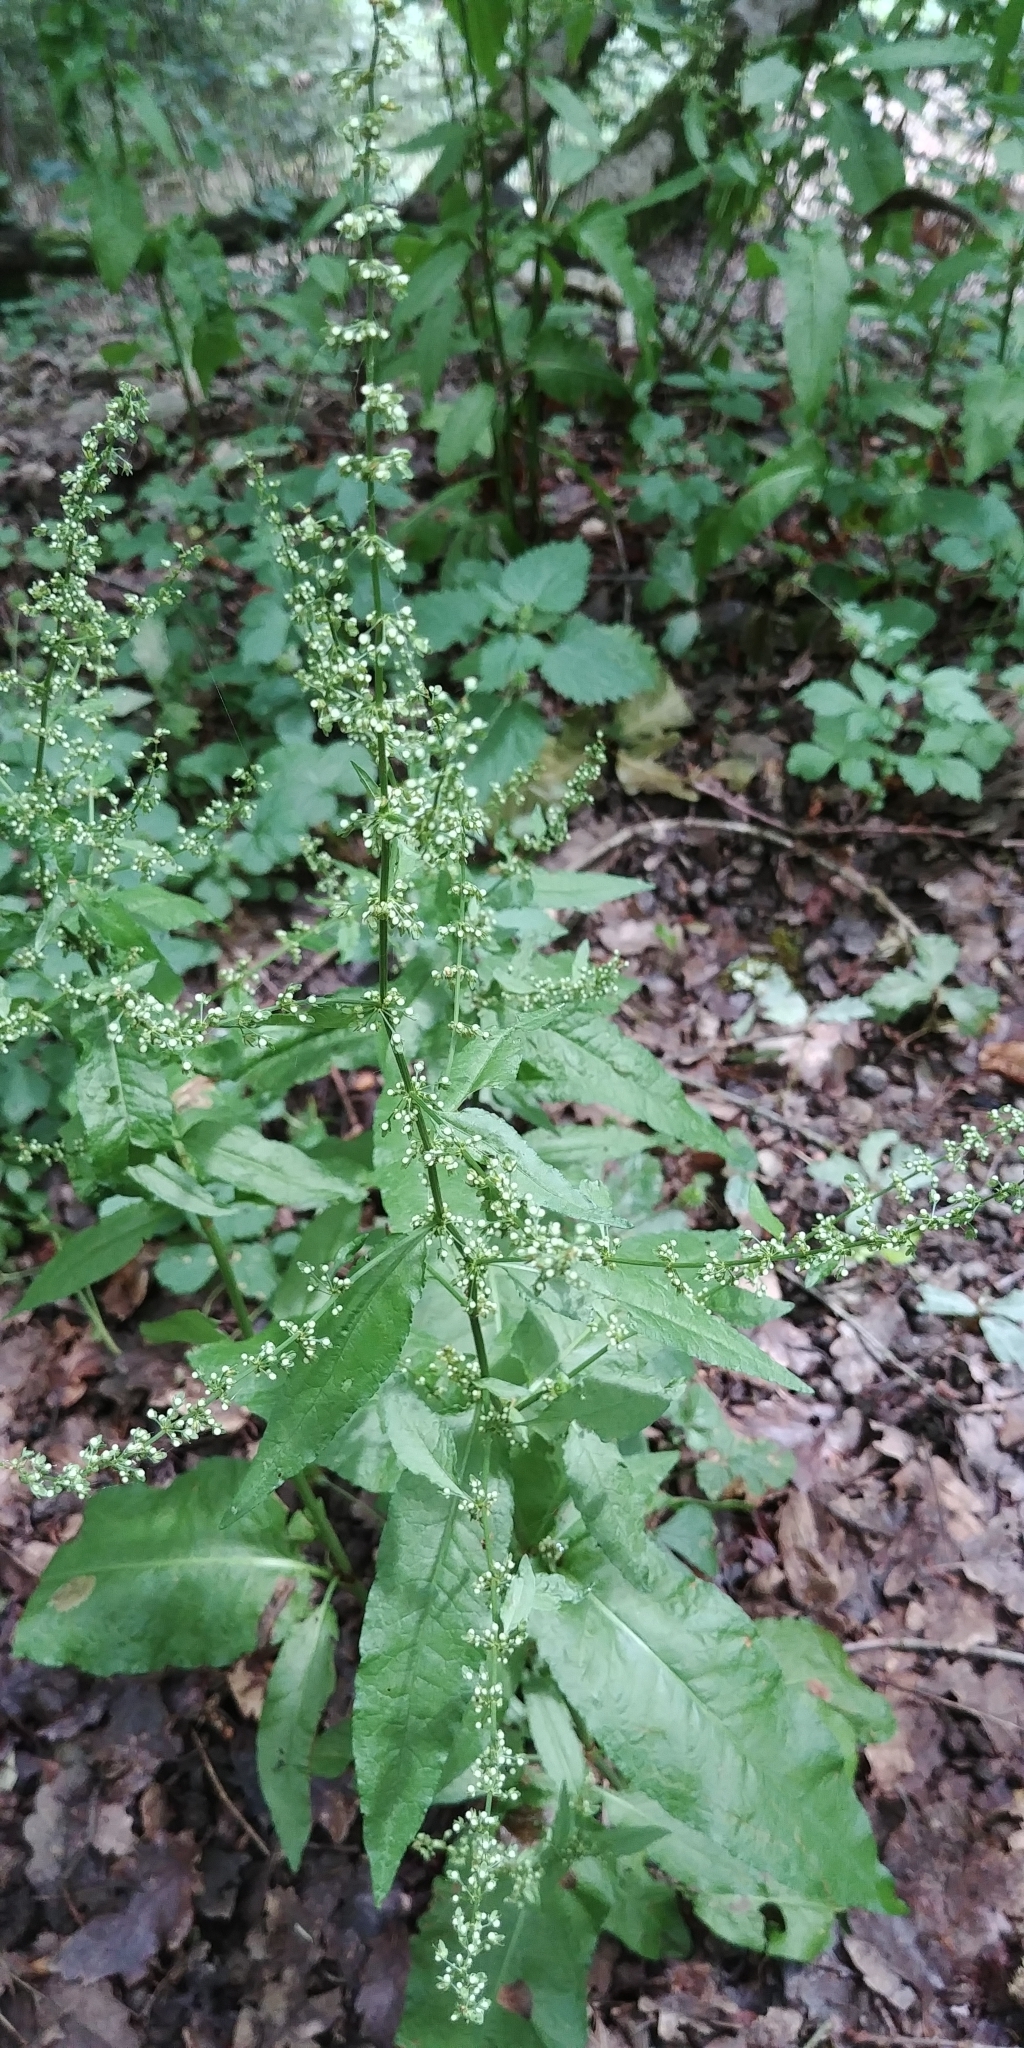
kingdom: Plantae
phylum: Tracheophyta
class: Magnoliopsida
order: Caryophyllales
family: Polygonaceae
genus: Rumex
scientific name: Rumex sanguineus
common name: Wood dock
